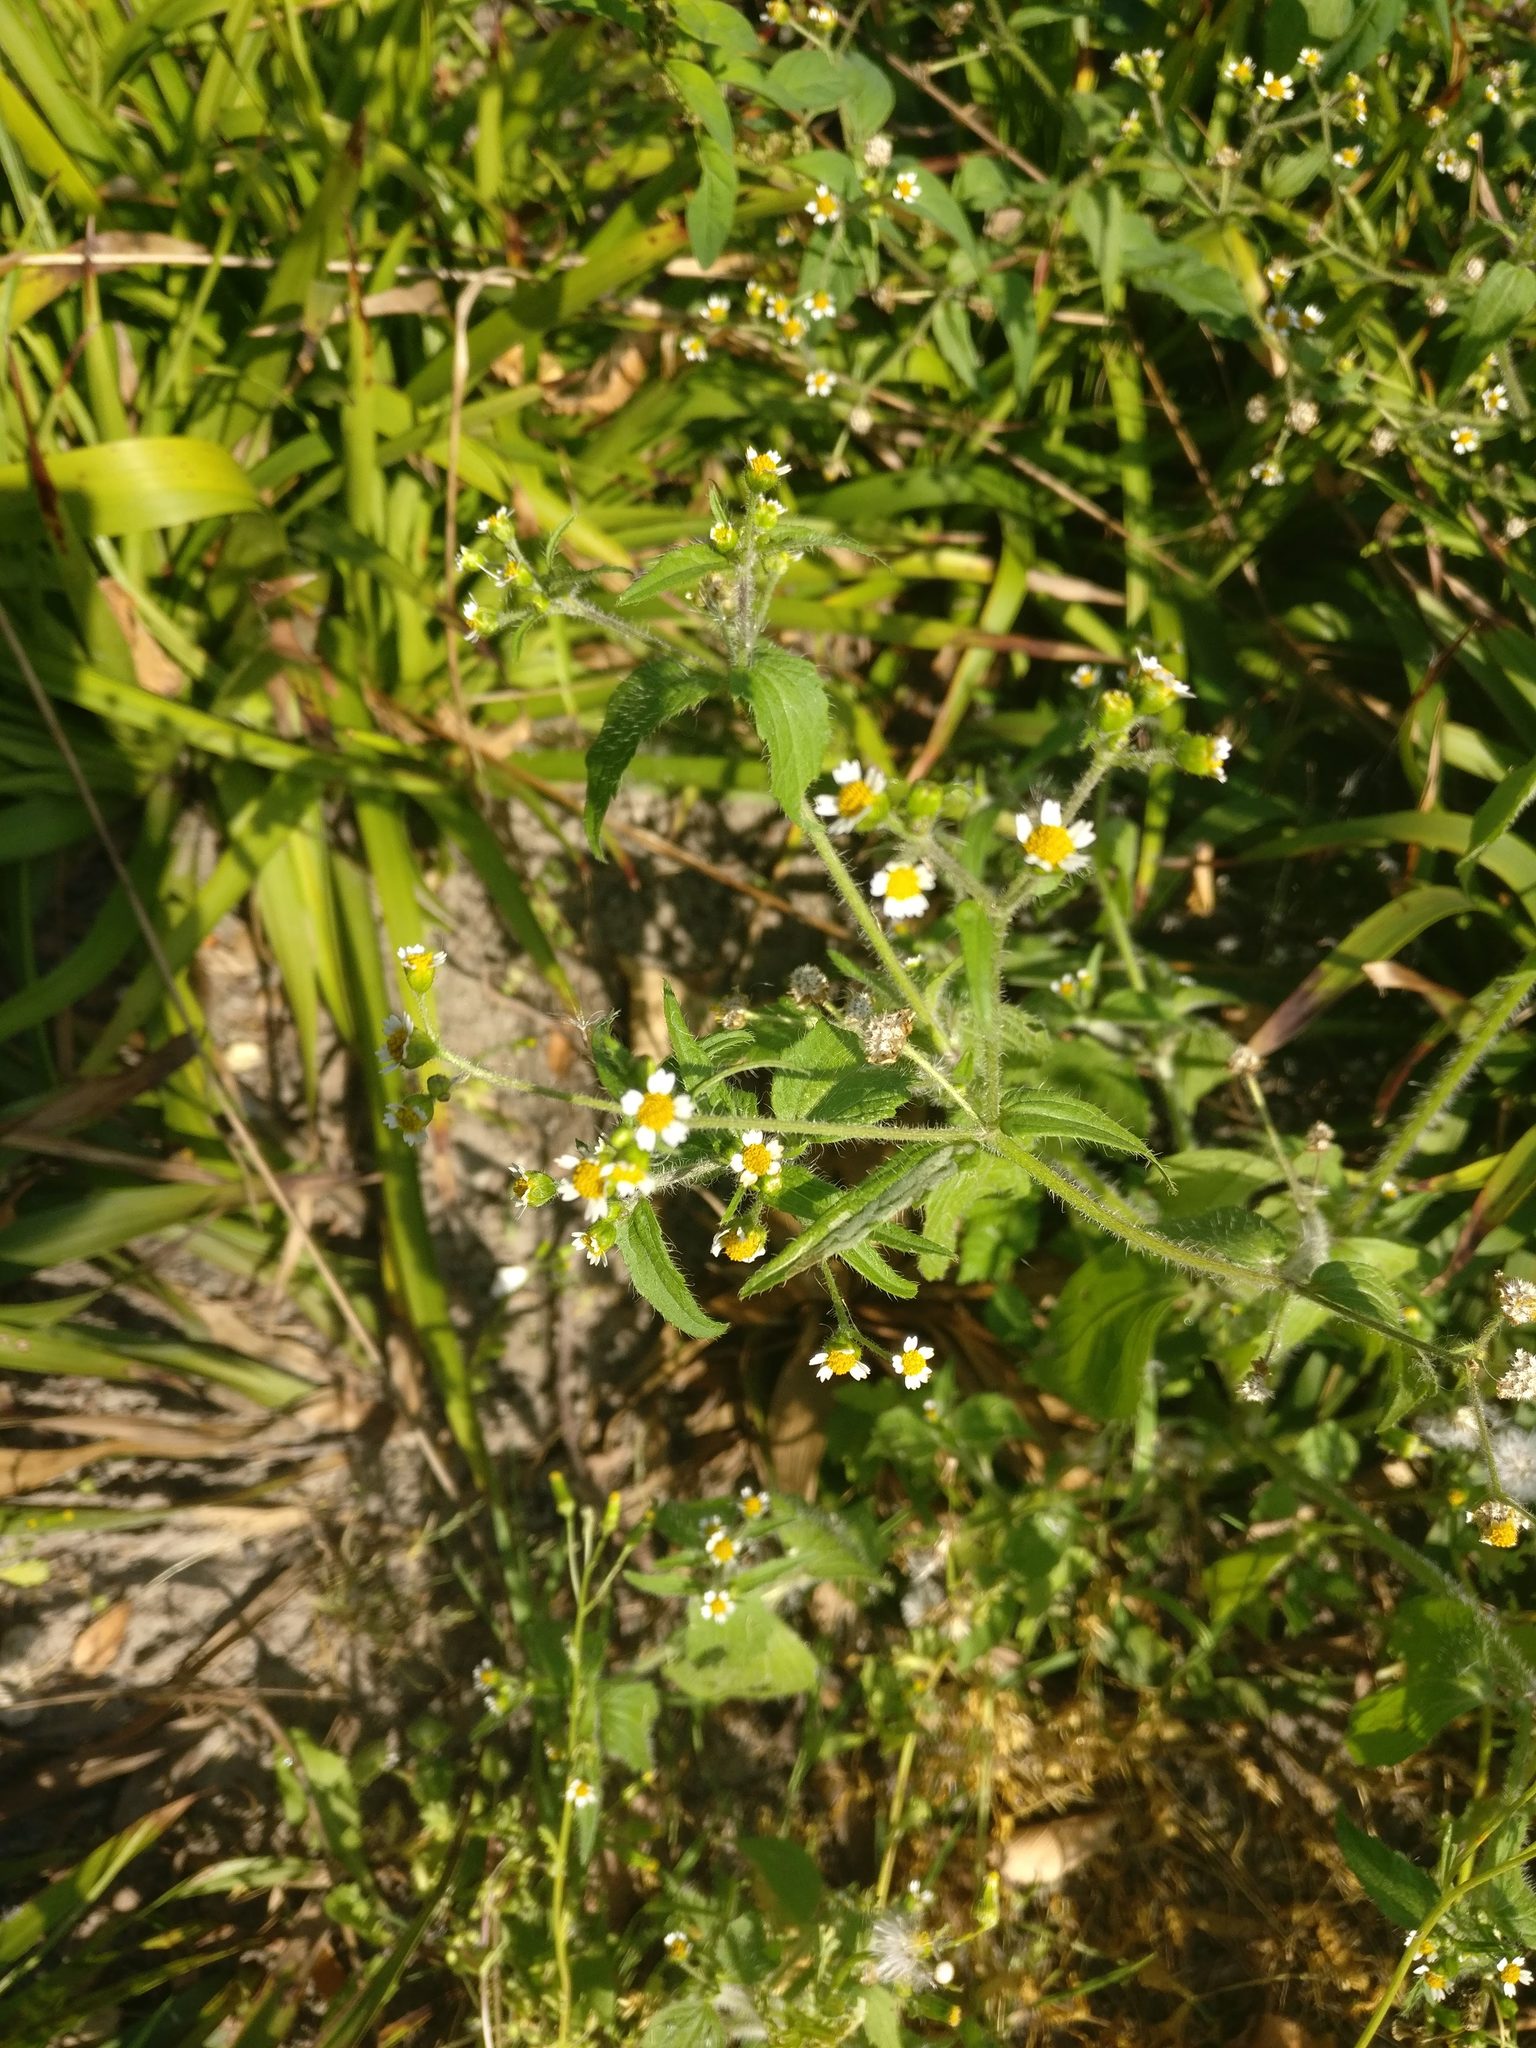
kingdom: Plantae
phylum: Tracheophyta
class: Magnoliopsida
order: Asterales
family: Asteraceae
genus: Galinsoga
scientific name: Galinsoga quadriradiata
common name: Shaggy soldier
